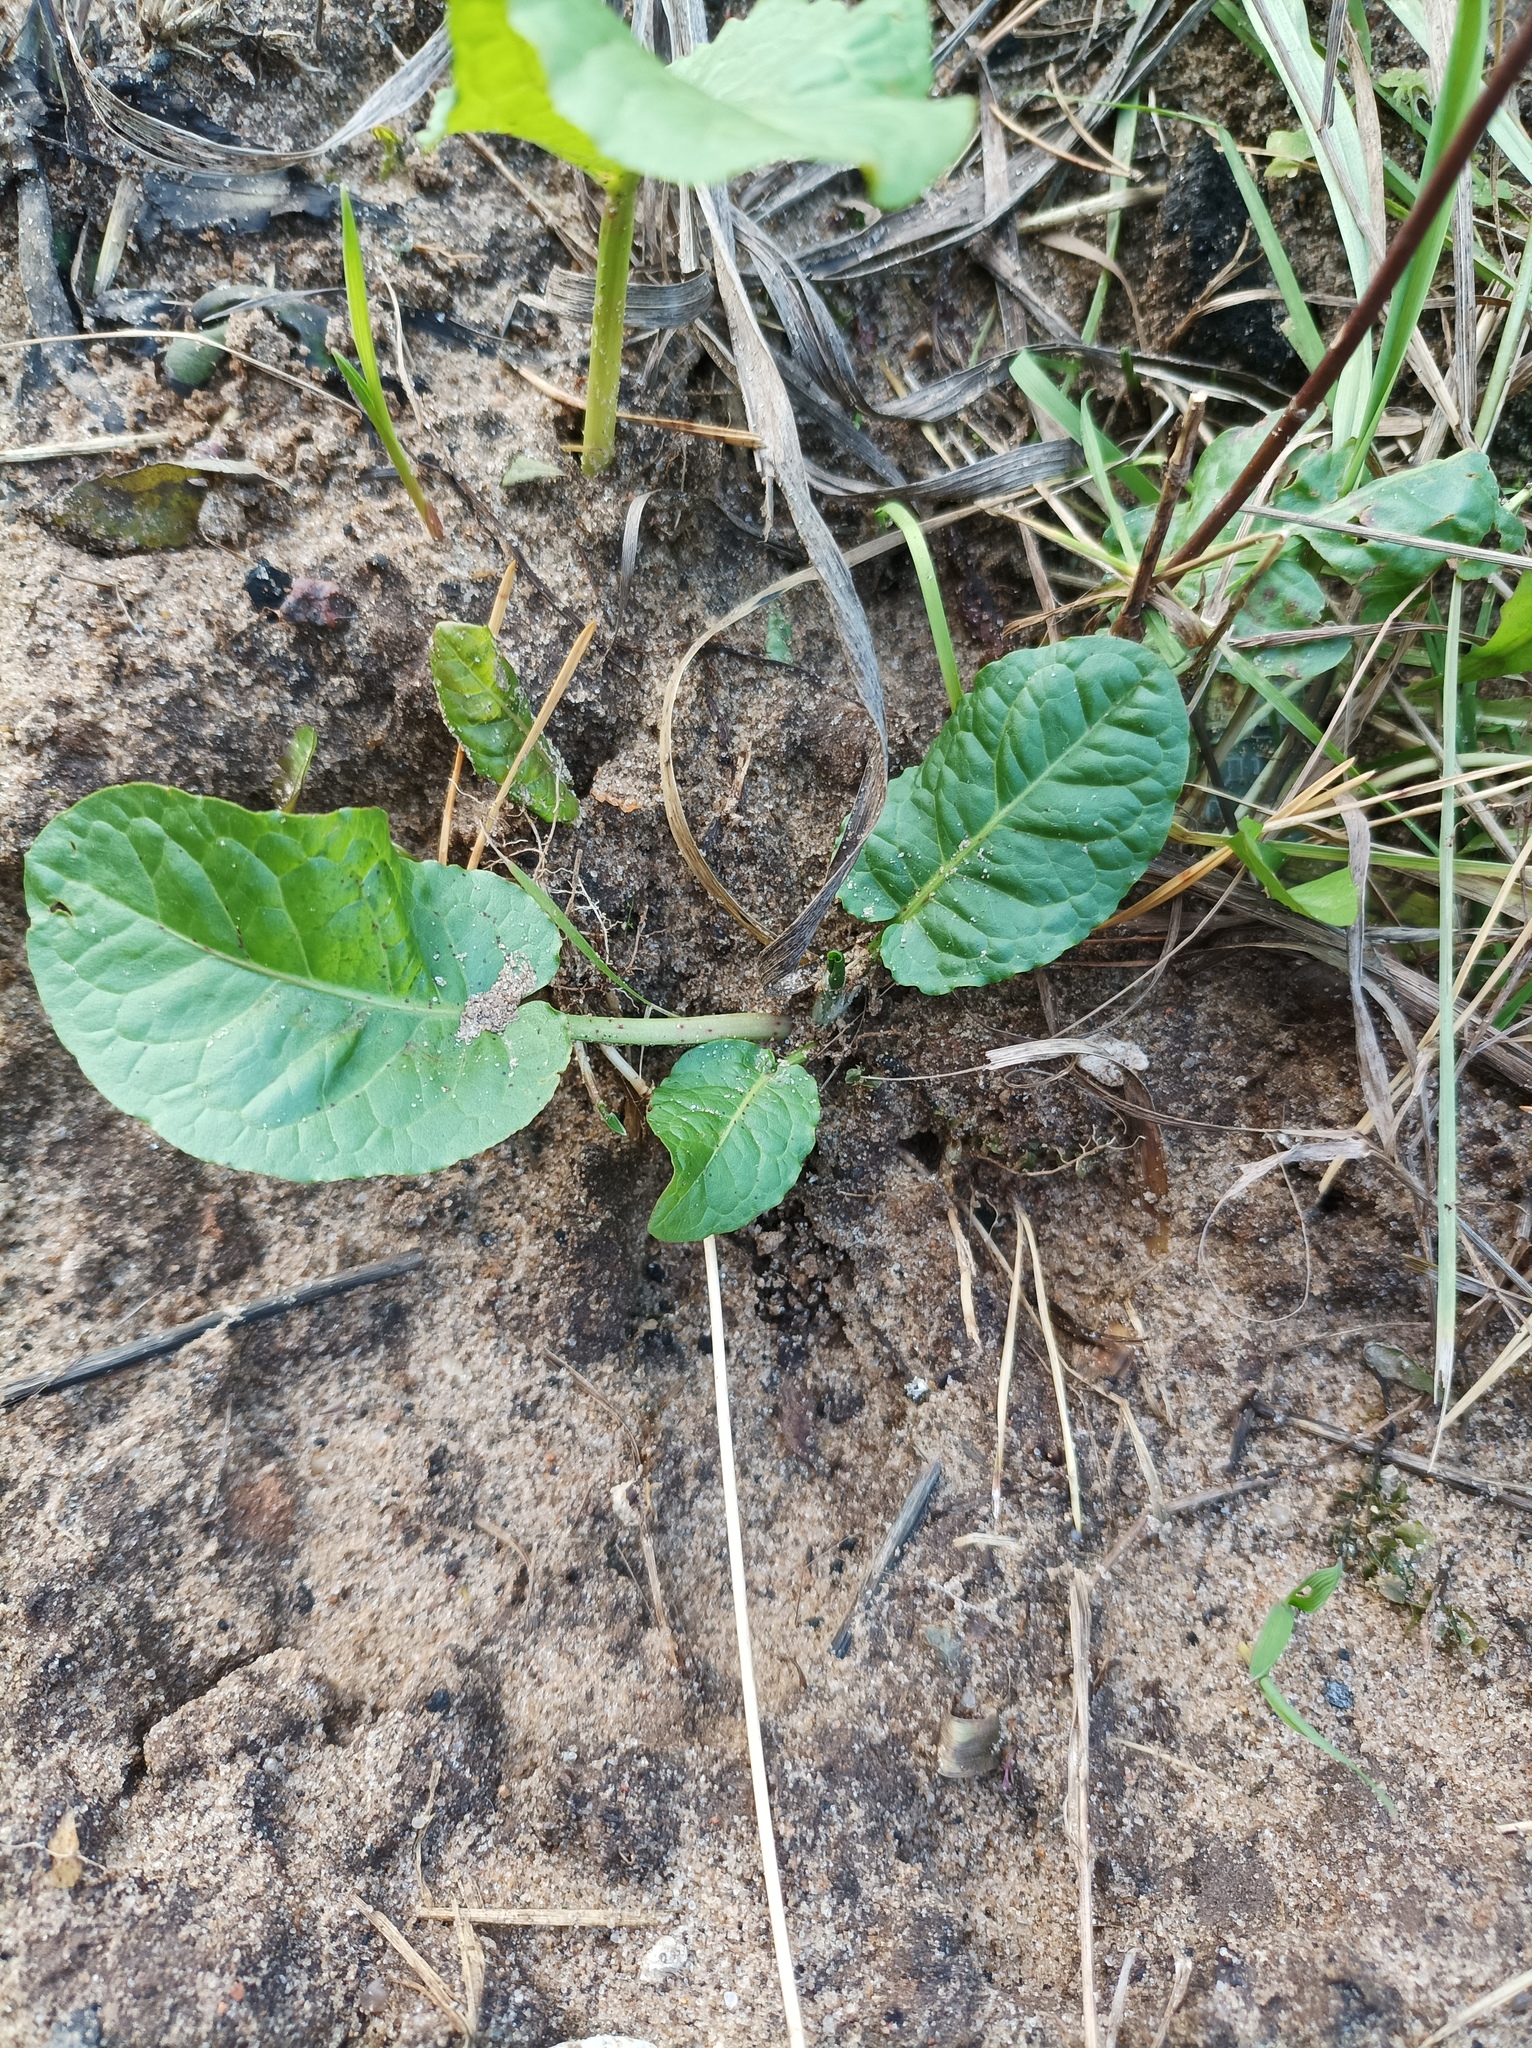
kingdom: Plantae
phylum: Tracheophyta
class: Magnoliopsida
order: Caryophyllales
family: Polygonaceae
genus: Rumex
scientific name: Rumex obtusifolius
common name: Bitter dock
